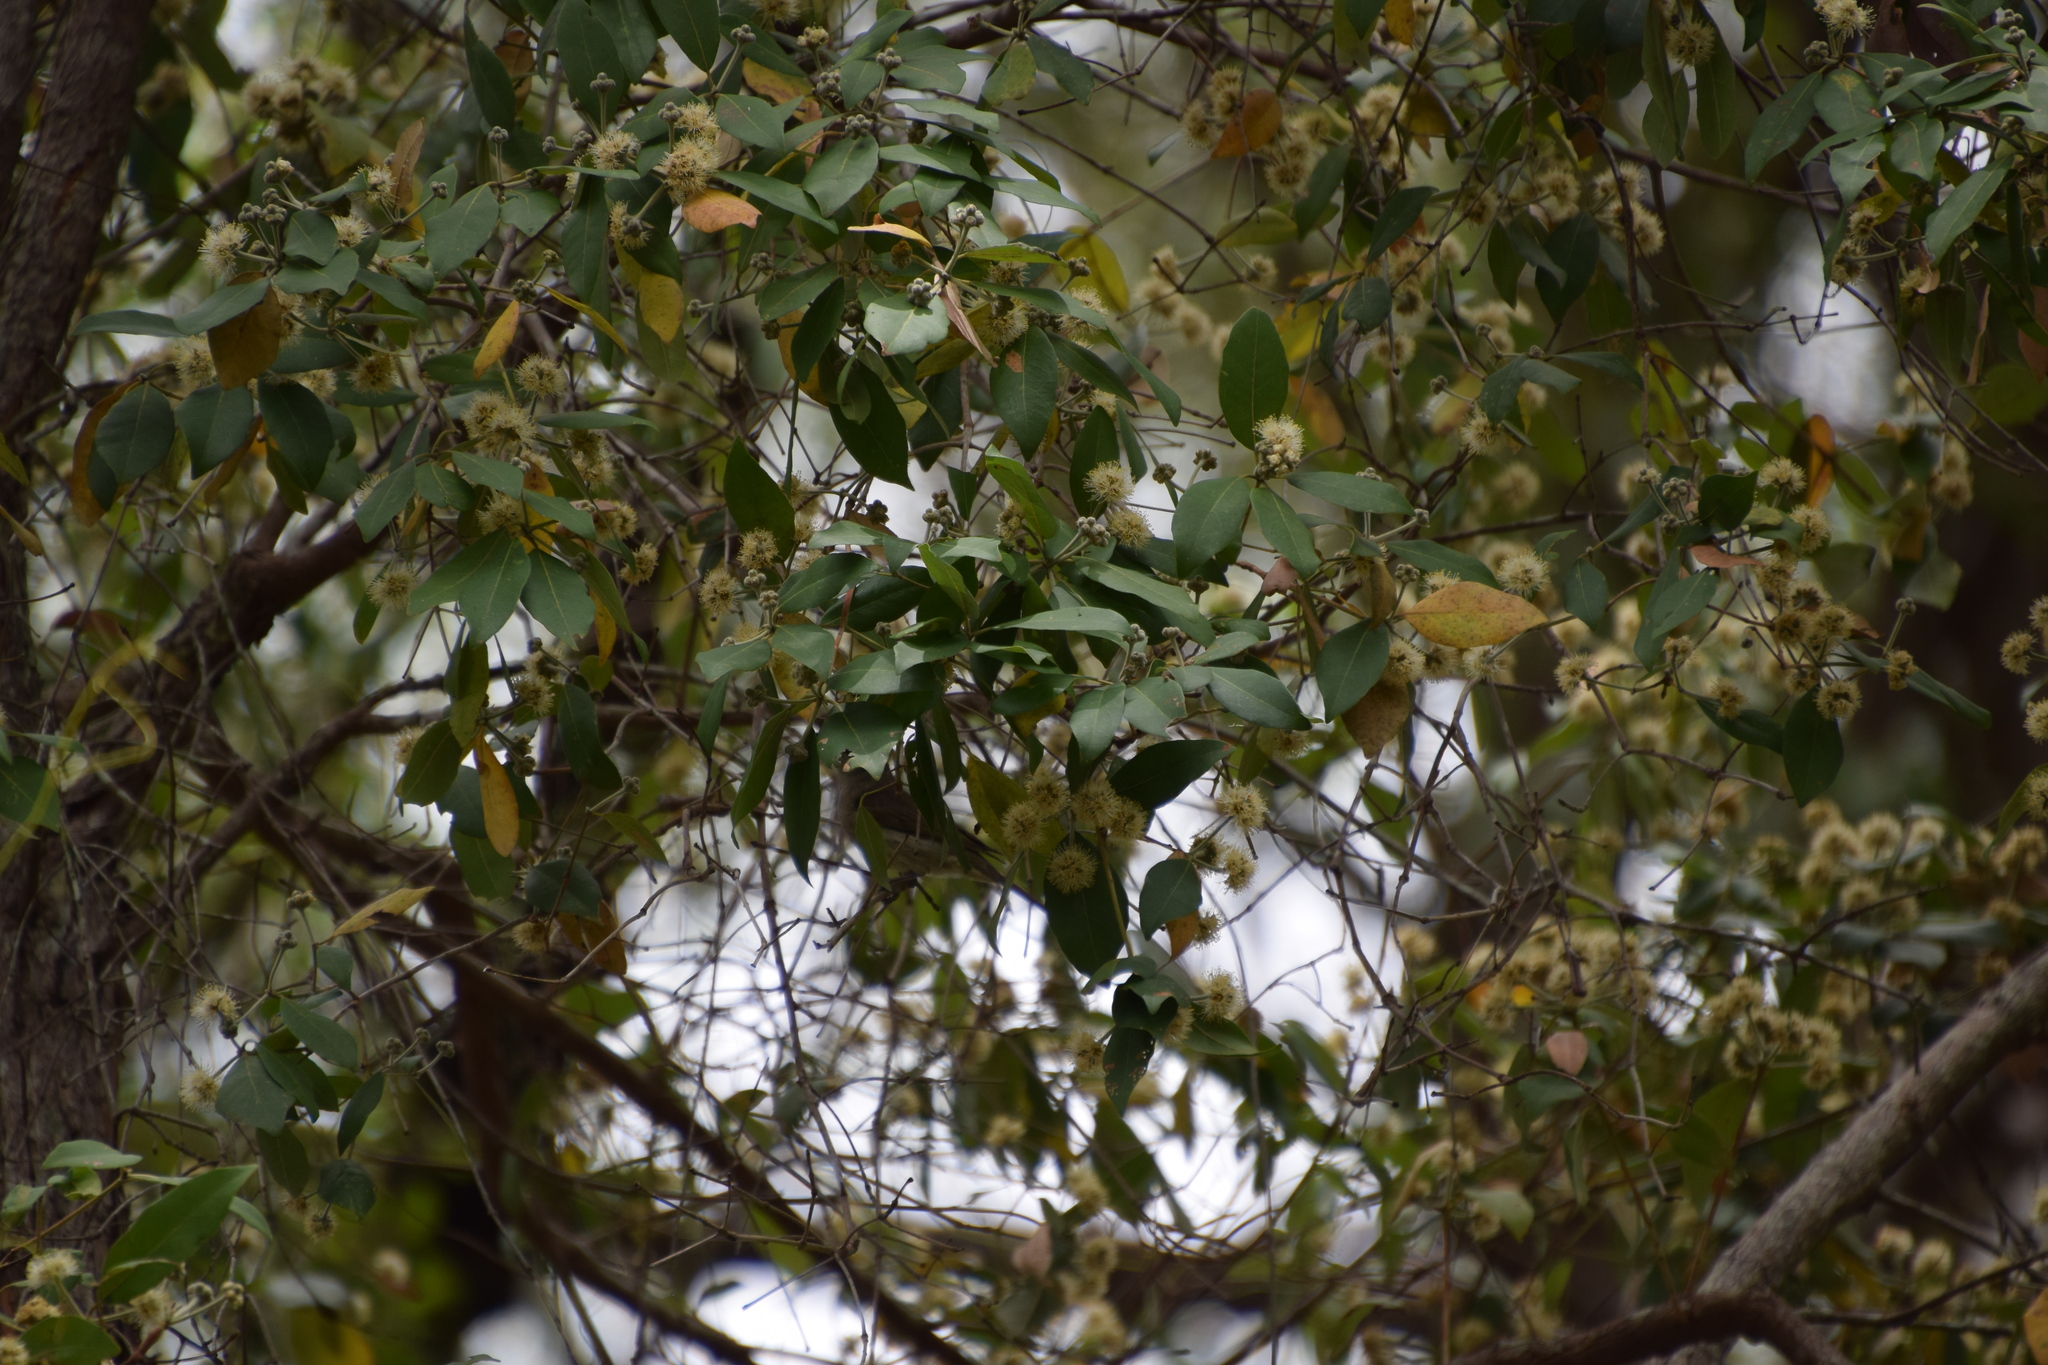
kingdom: Plantae
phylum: Tracheophyta
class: Magnoliopsida
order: Myrtales
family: Myrtaceae
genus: Syncarpia
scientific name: Syncarpia glomulifera
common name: Turpentine tree
